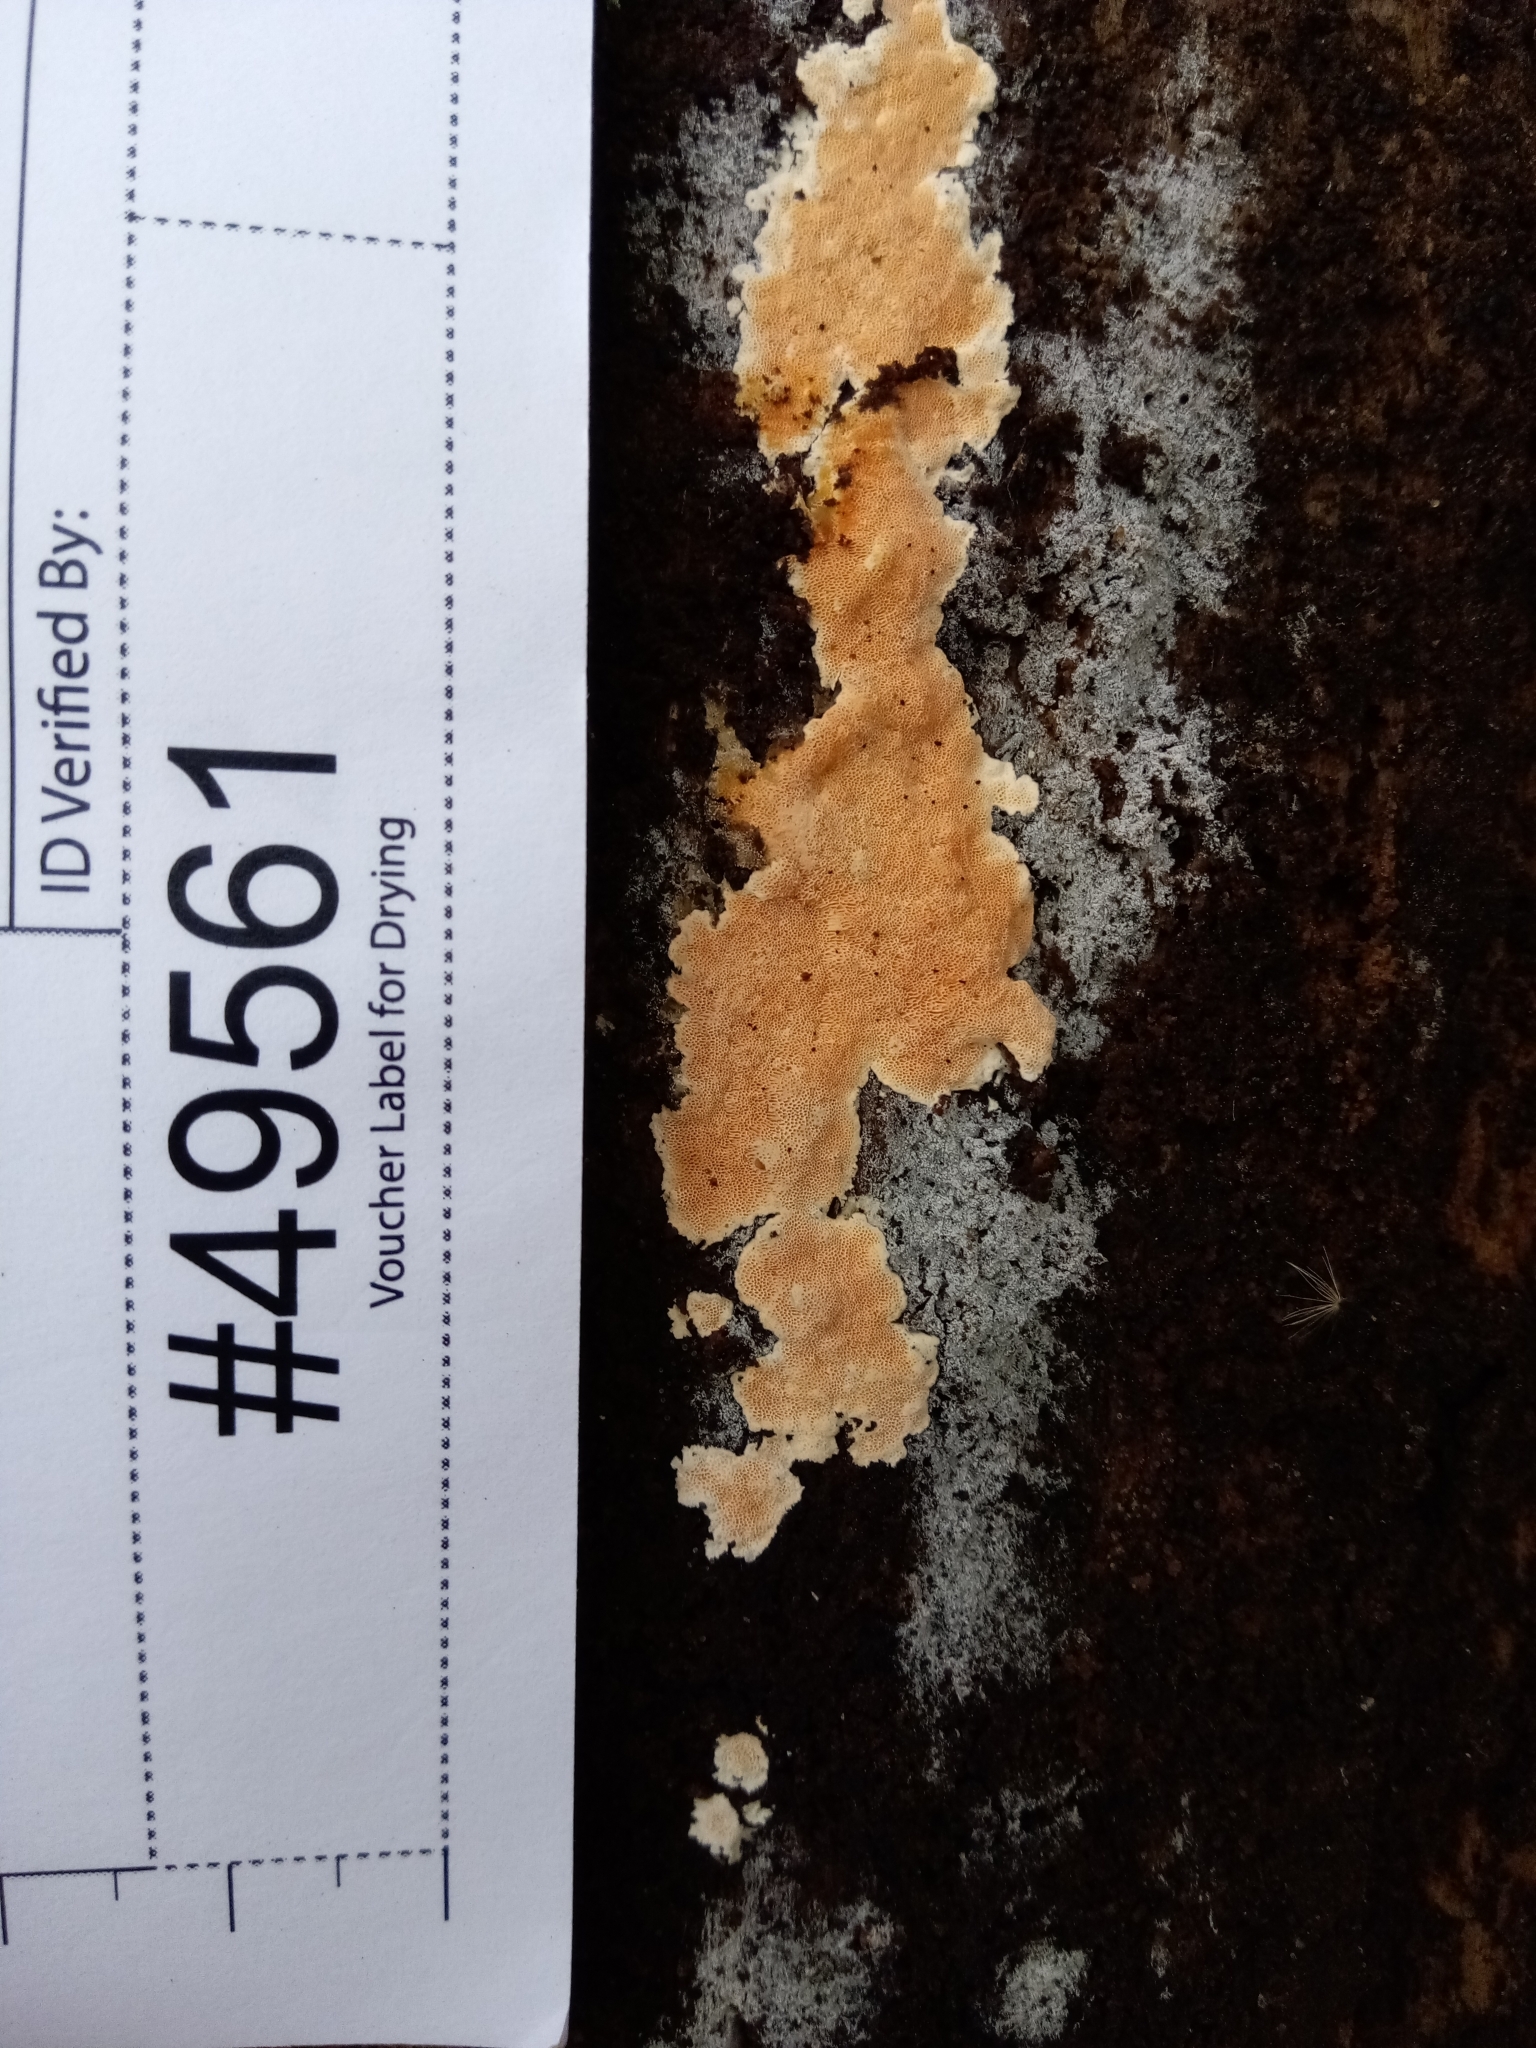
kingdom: Fungi
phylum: Basidiomycota
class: Agaricomycetes
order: Polyporales
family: Steccherinaceae
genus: Junghuhnia
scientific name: Junghuhnia nitida
